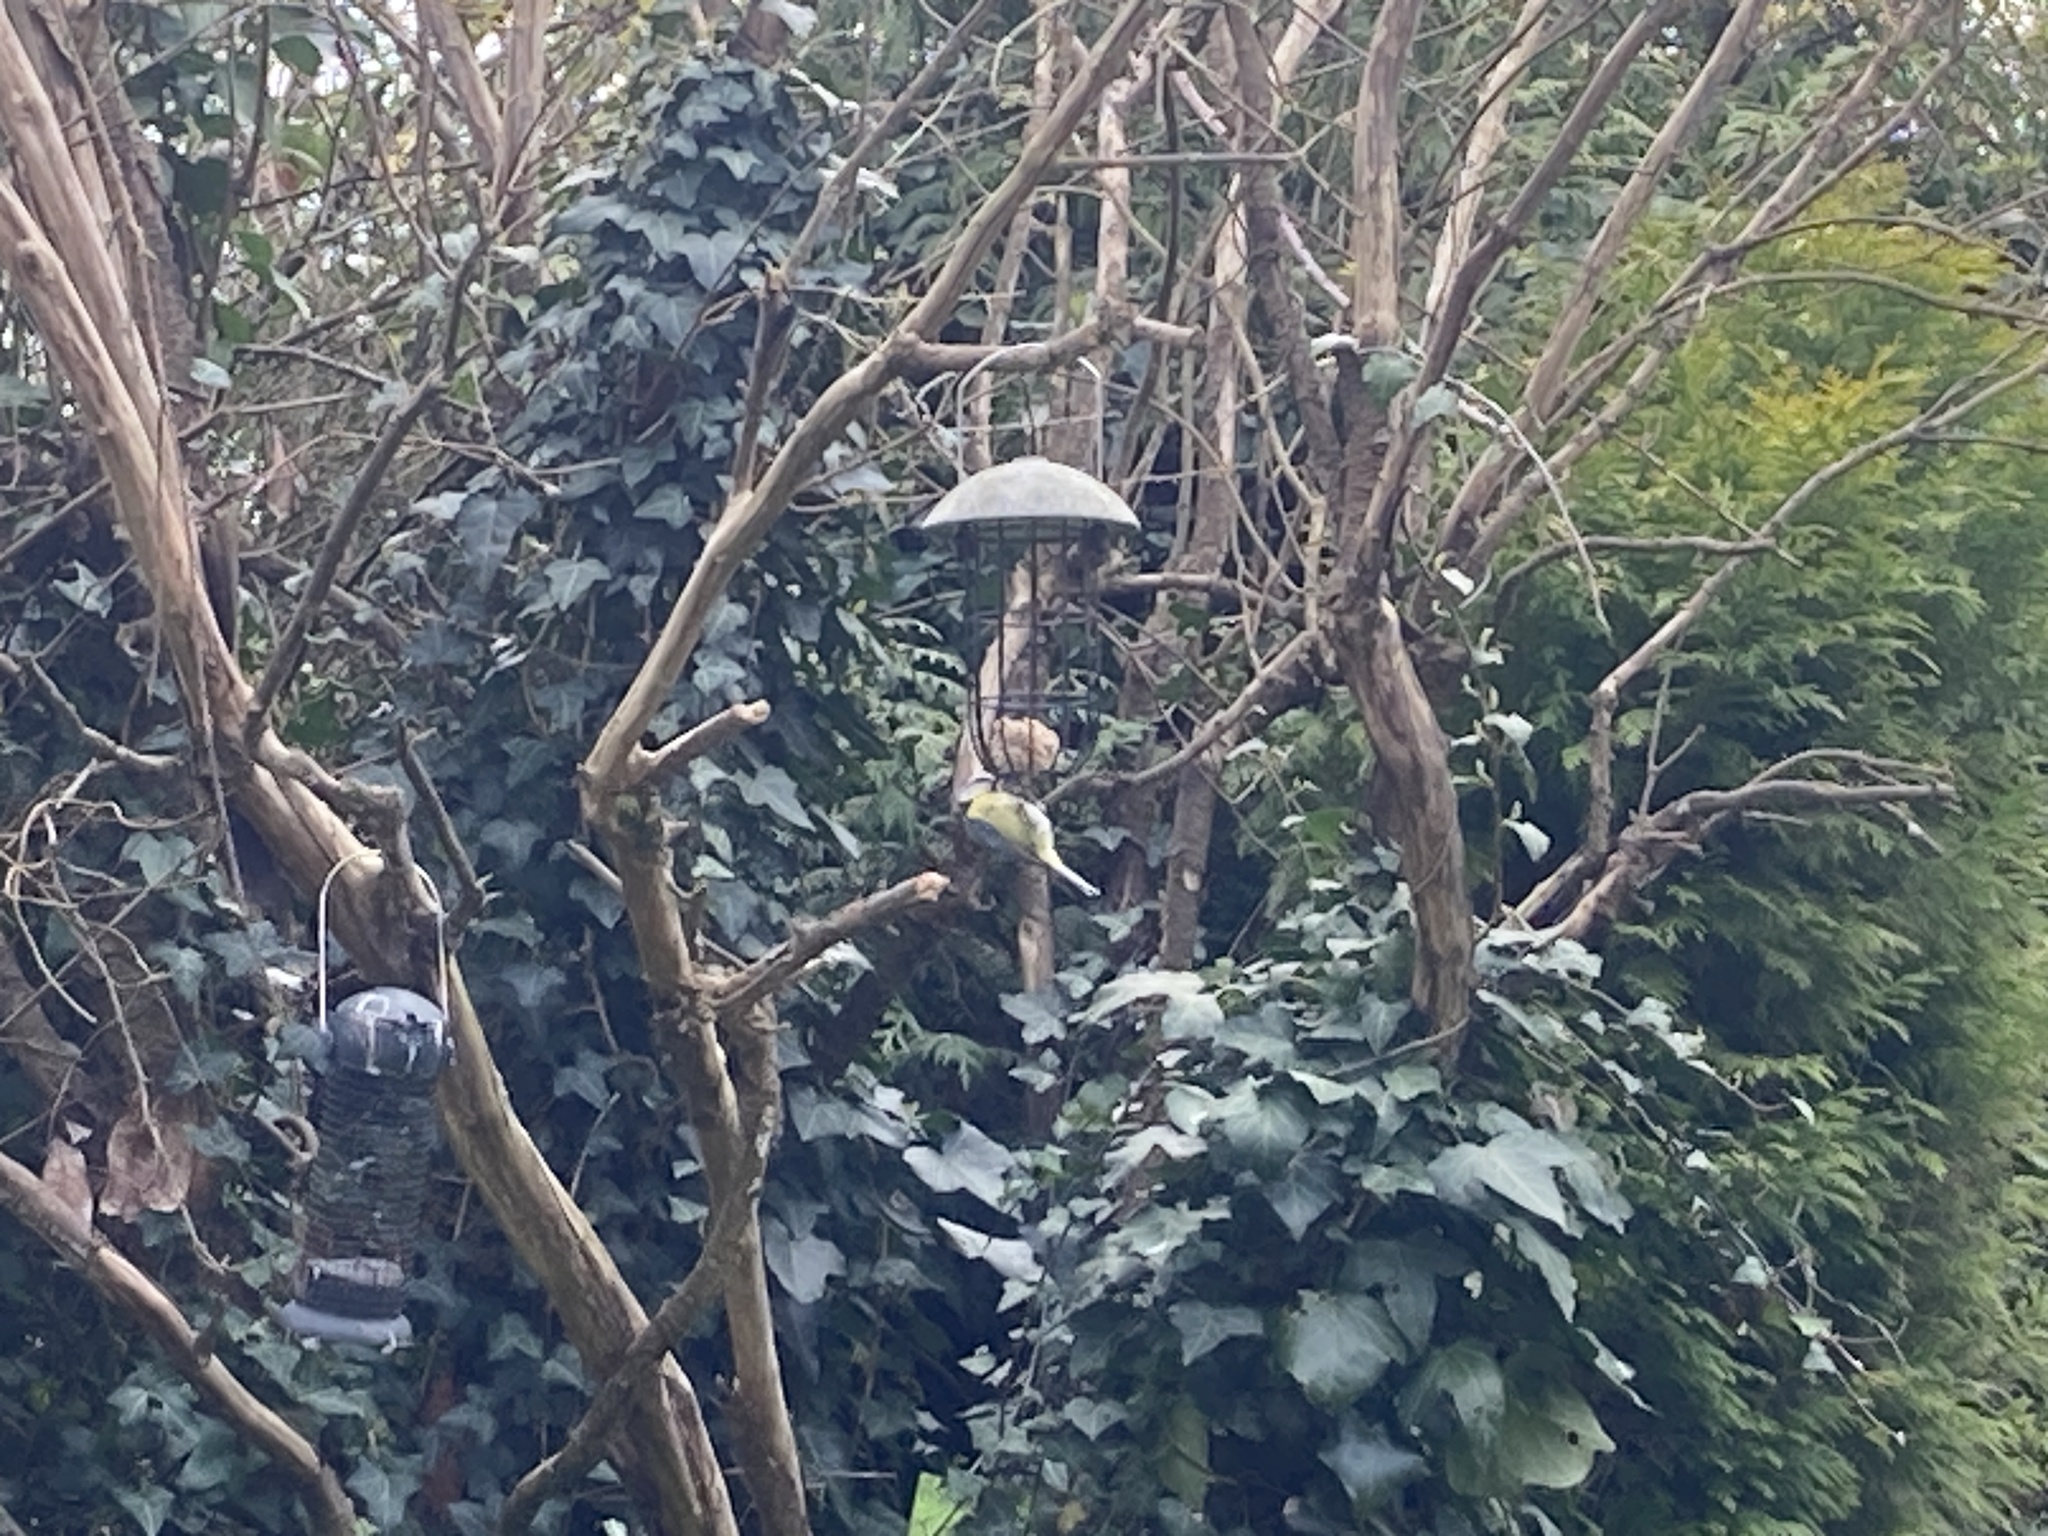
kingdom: Animalia
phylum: Chordata
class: Aves
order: Passeriformes
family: Paridae
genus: Cyanistes
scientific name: Cyanistes caeruleus
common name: Eurasian blue tit
